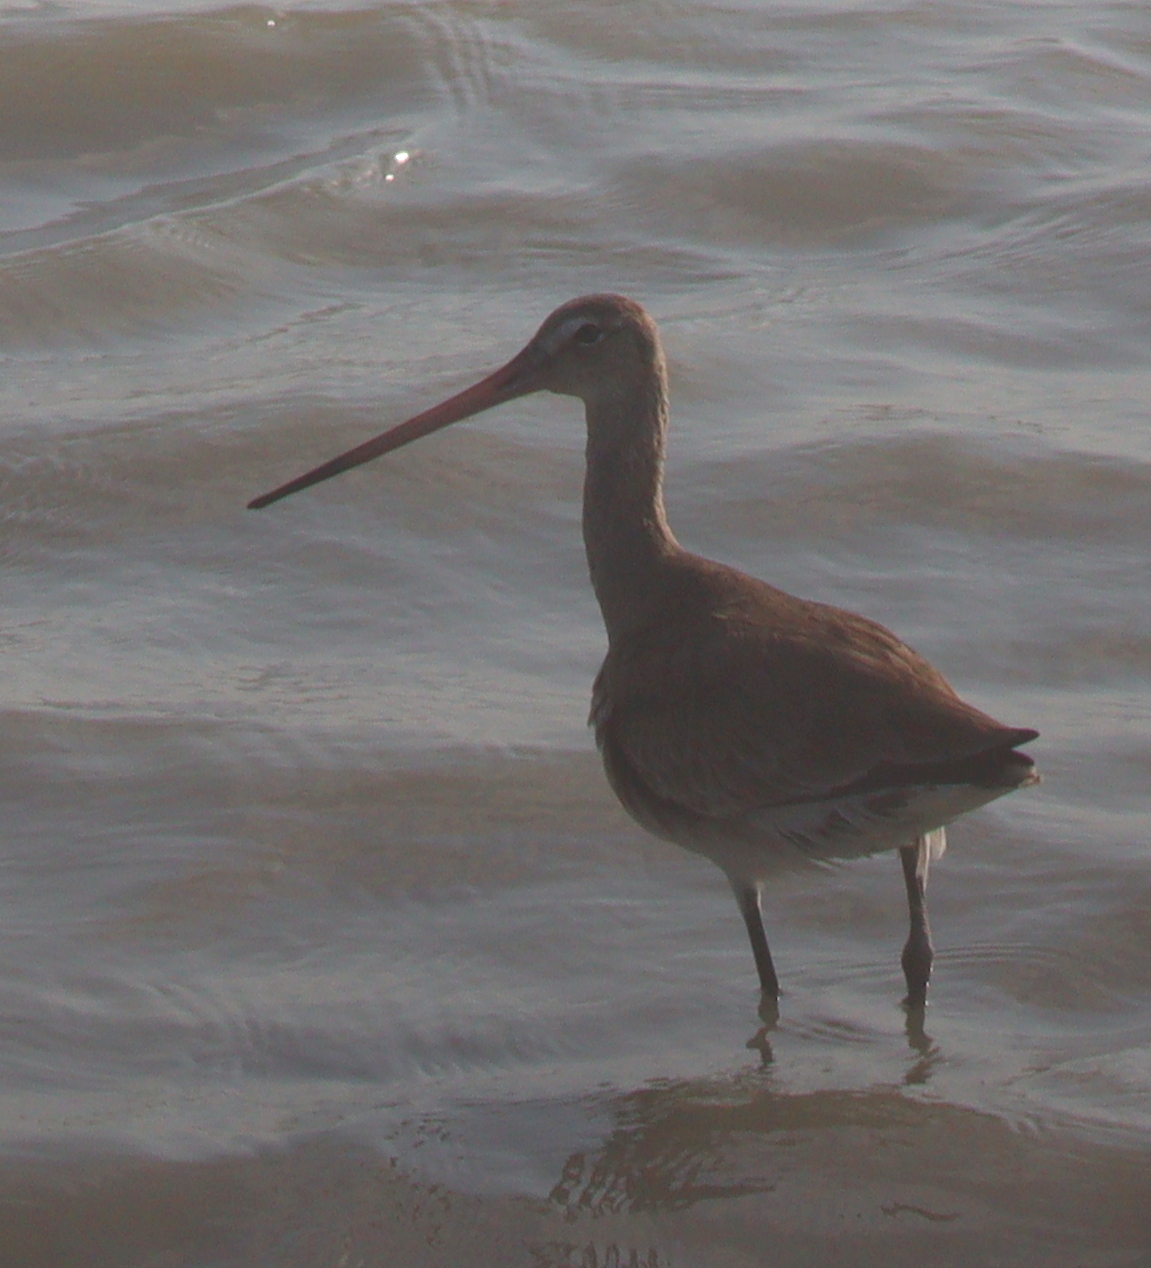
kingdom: Animalia
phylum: Chordata
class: Aves
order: Charadriiformes
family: Scolopacidae
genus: Limosa
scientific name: Limosa limosa
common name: Black-tailed godwit
